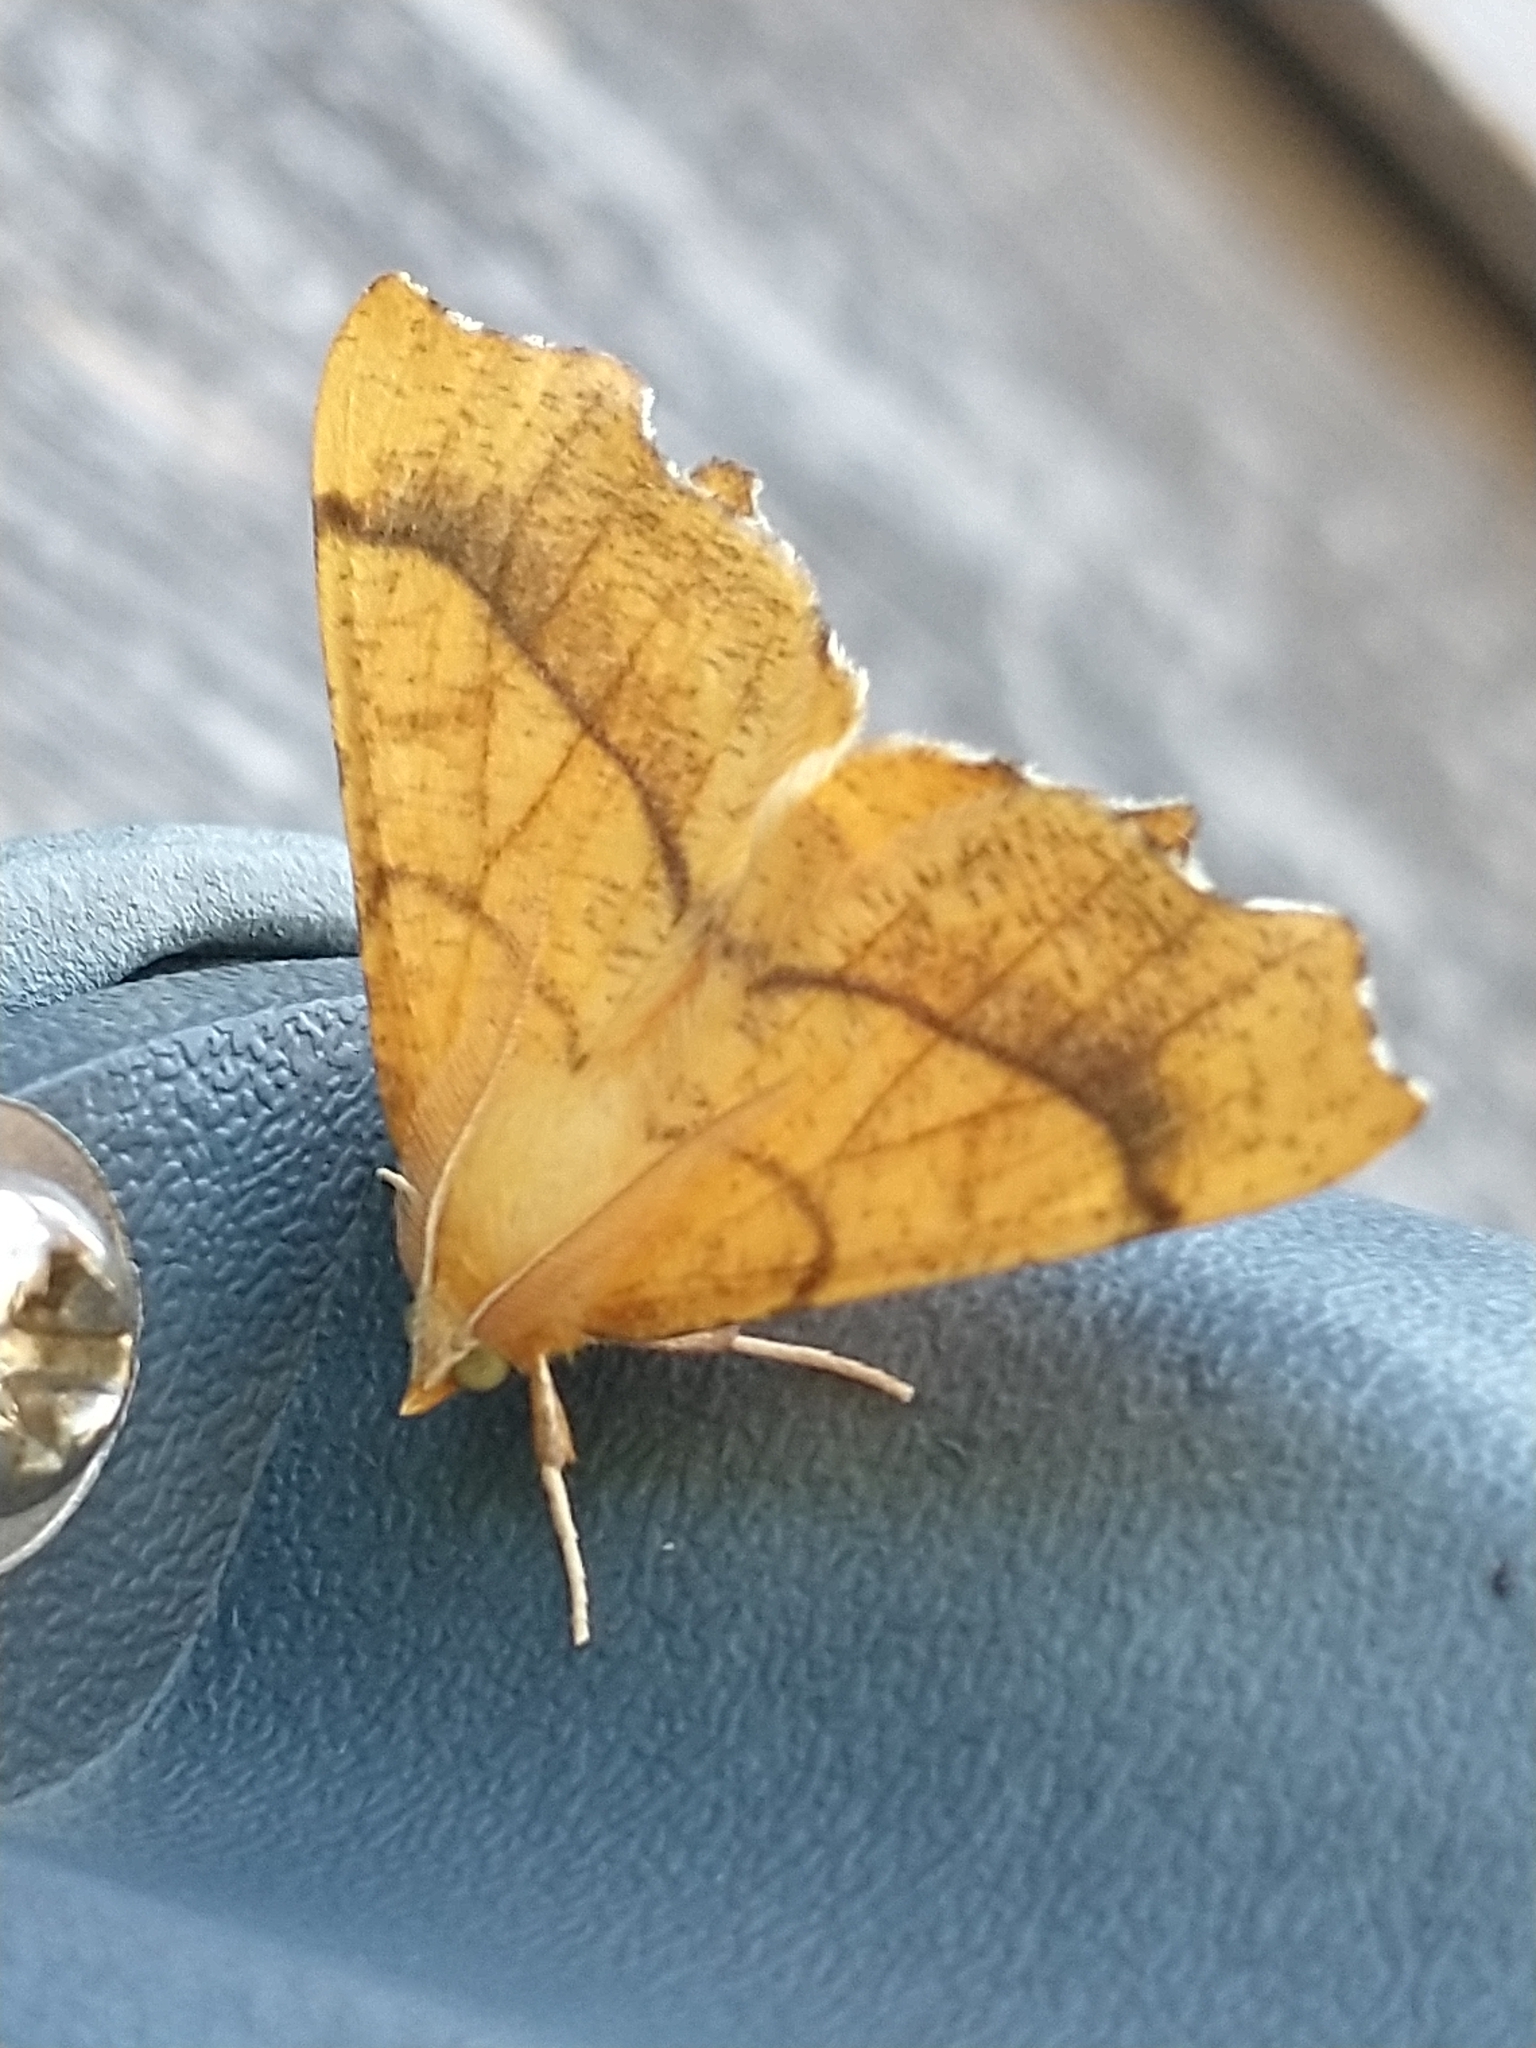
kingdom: Animalia
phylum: Arthropoda
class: Insecta
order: Lepidoptera
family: Geometridae
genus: Ennomos
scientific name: Ennomos quercinaria
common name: August thorn
